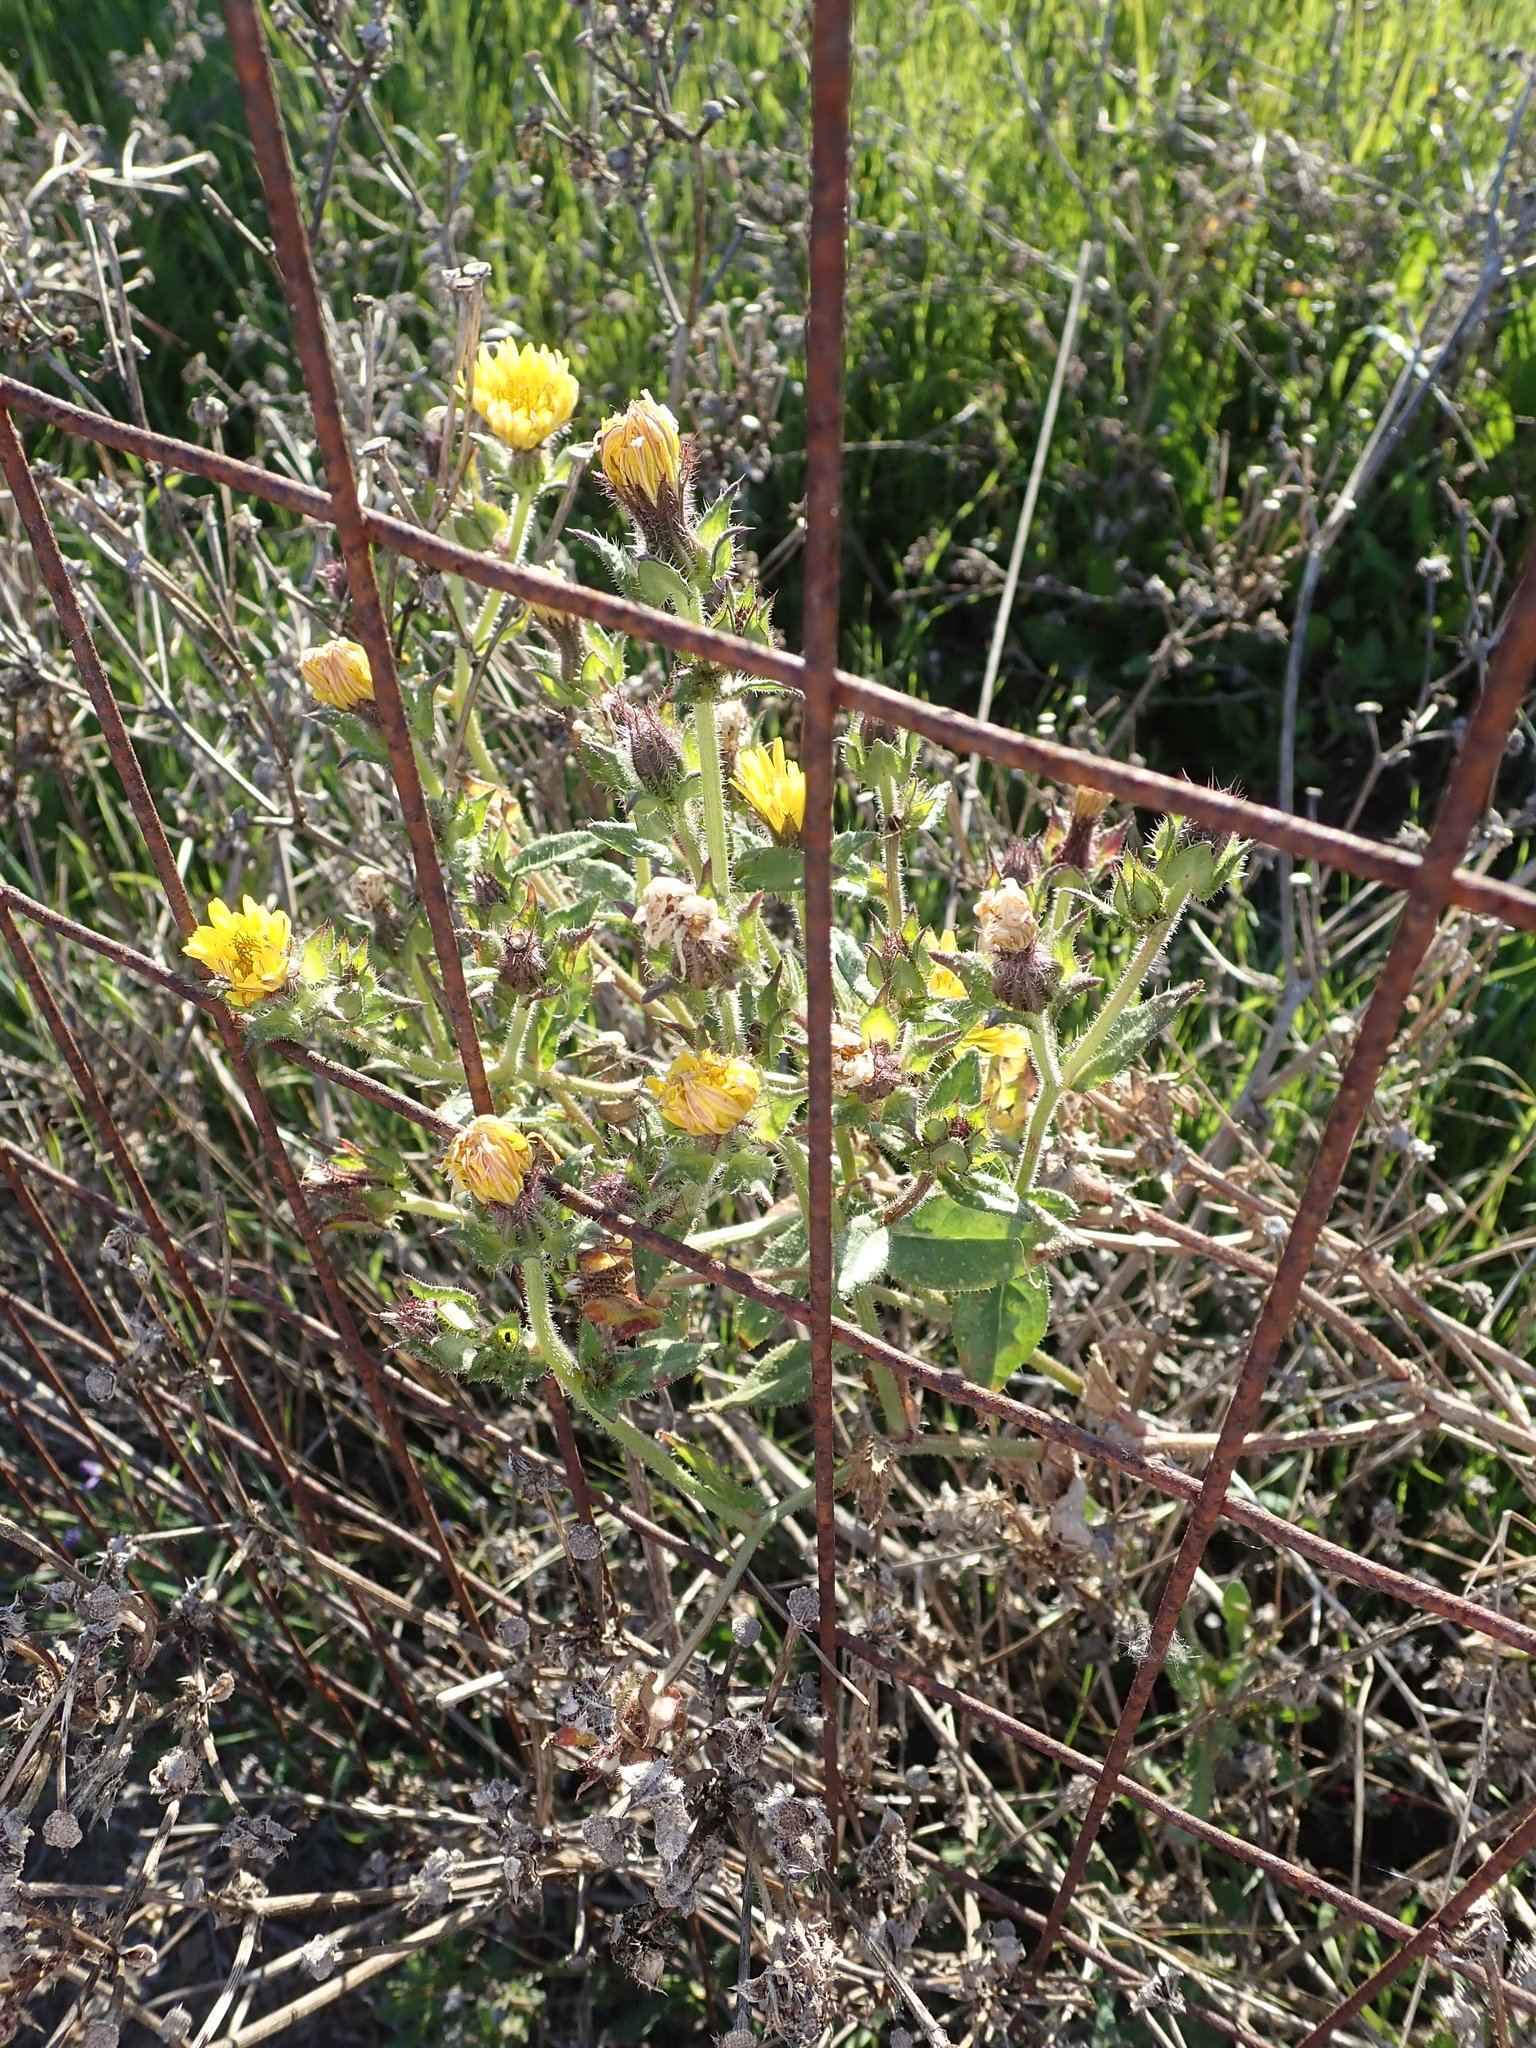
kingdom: Plantae
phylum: Tracheophyta
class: Magnoliopsida
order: Asterales
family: Asteraceae
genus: Helminthotheca
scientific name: Helminthotheca echioides
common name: Ox-tongue
